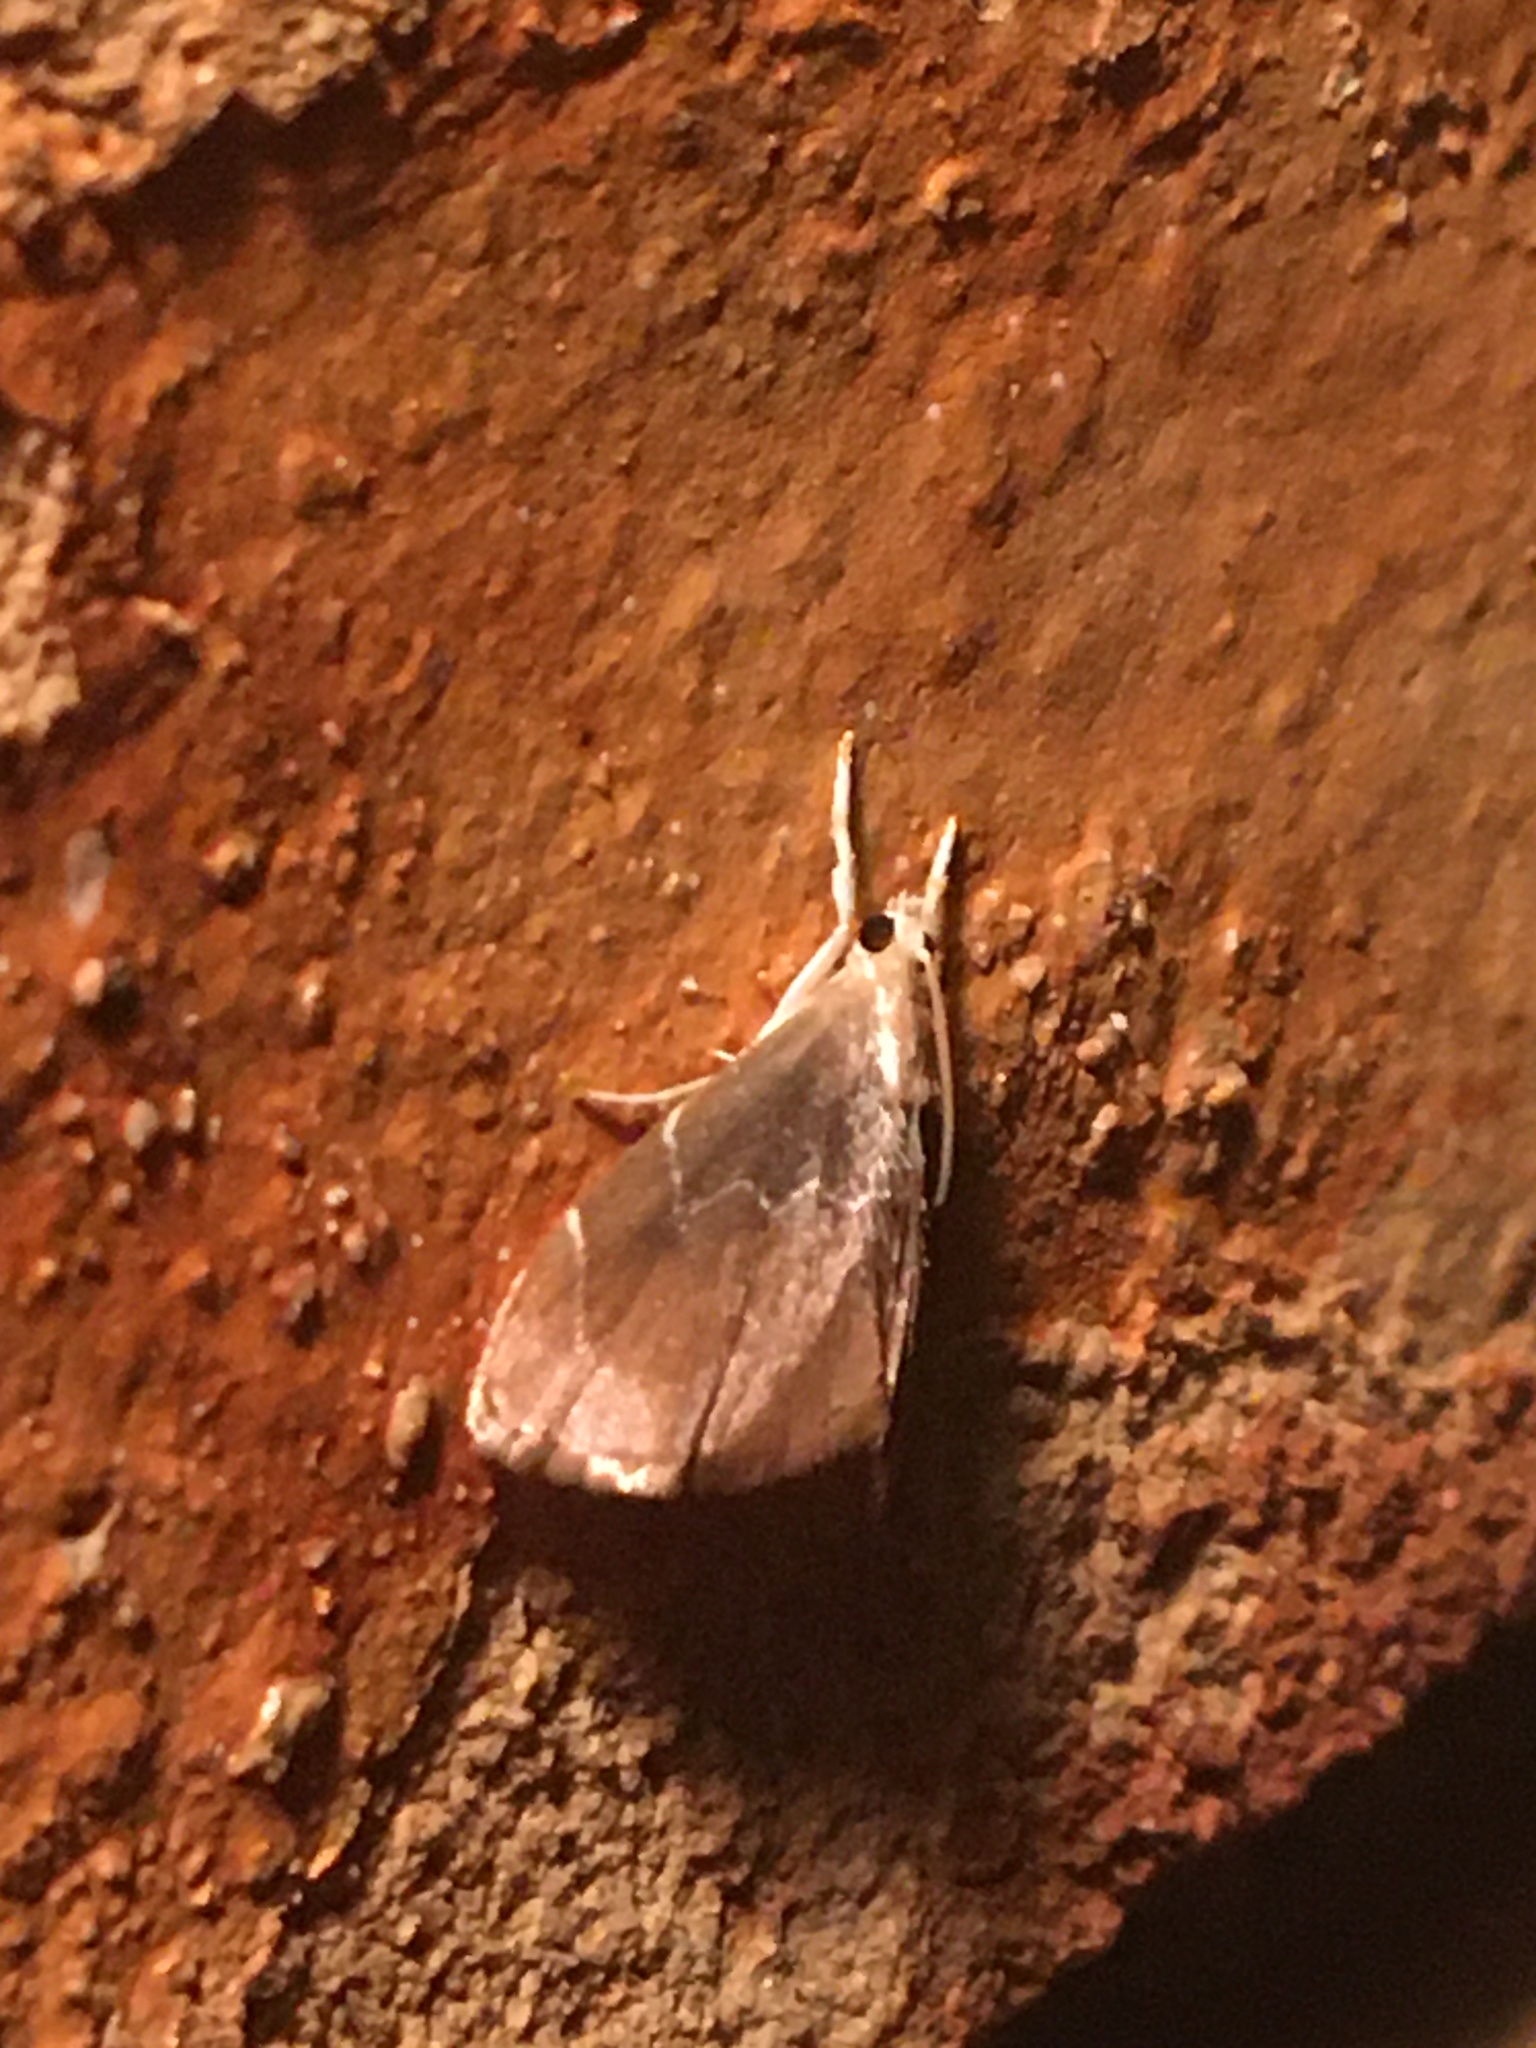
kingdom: Animalia
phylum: Arthropoda
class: Insecta
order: Lepidoptera
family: Crambidae
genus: Glaphyria
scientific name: Glaphyria peremptalis
